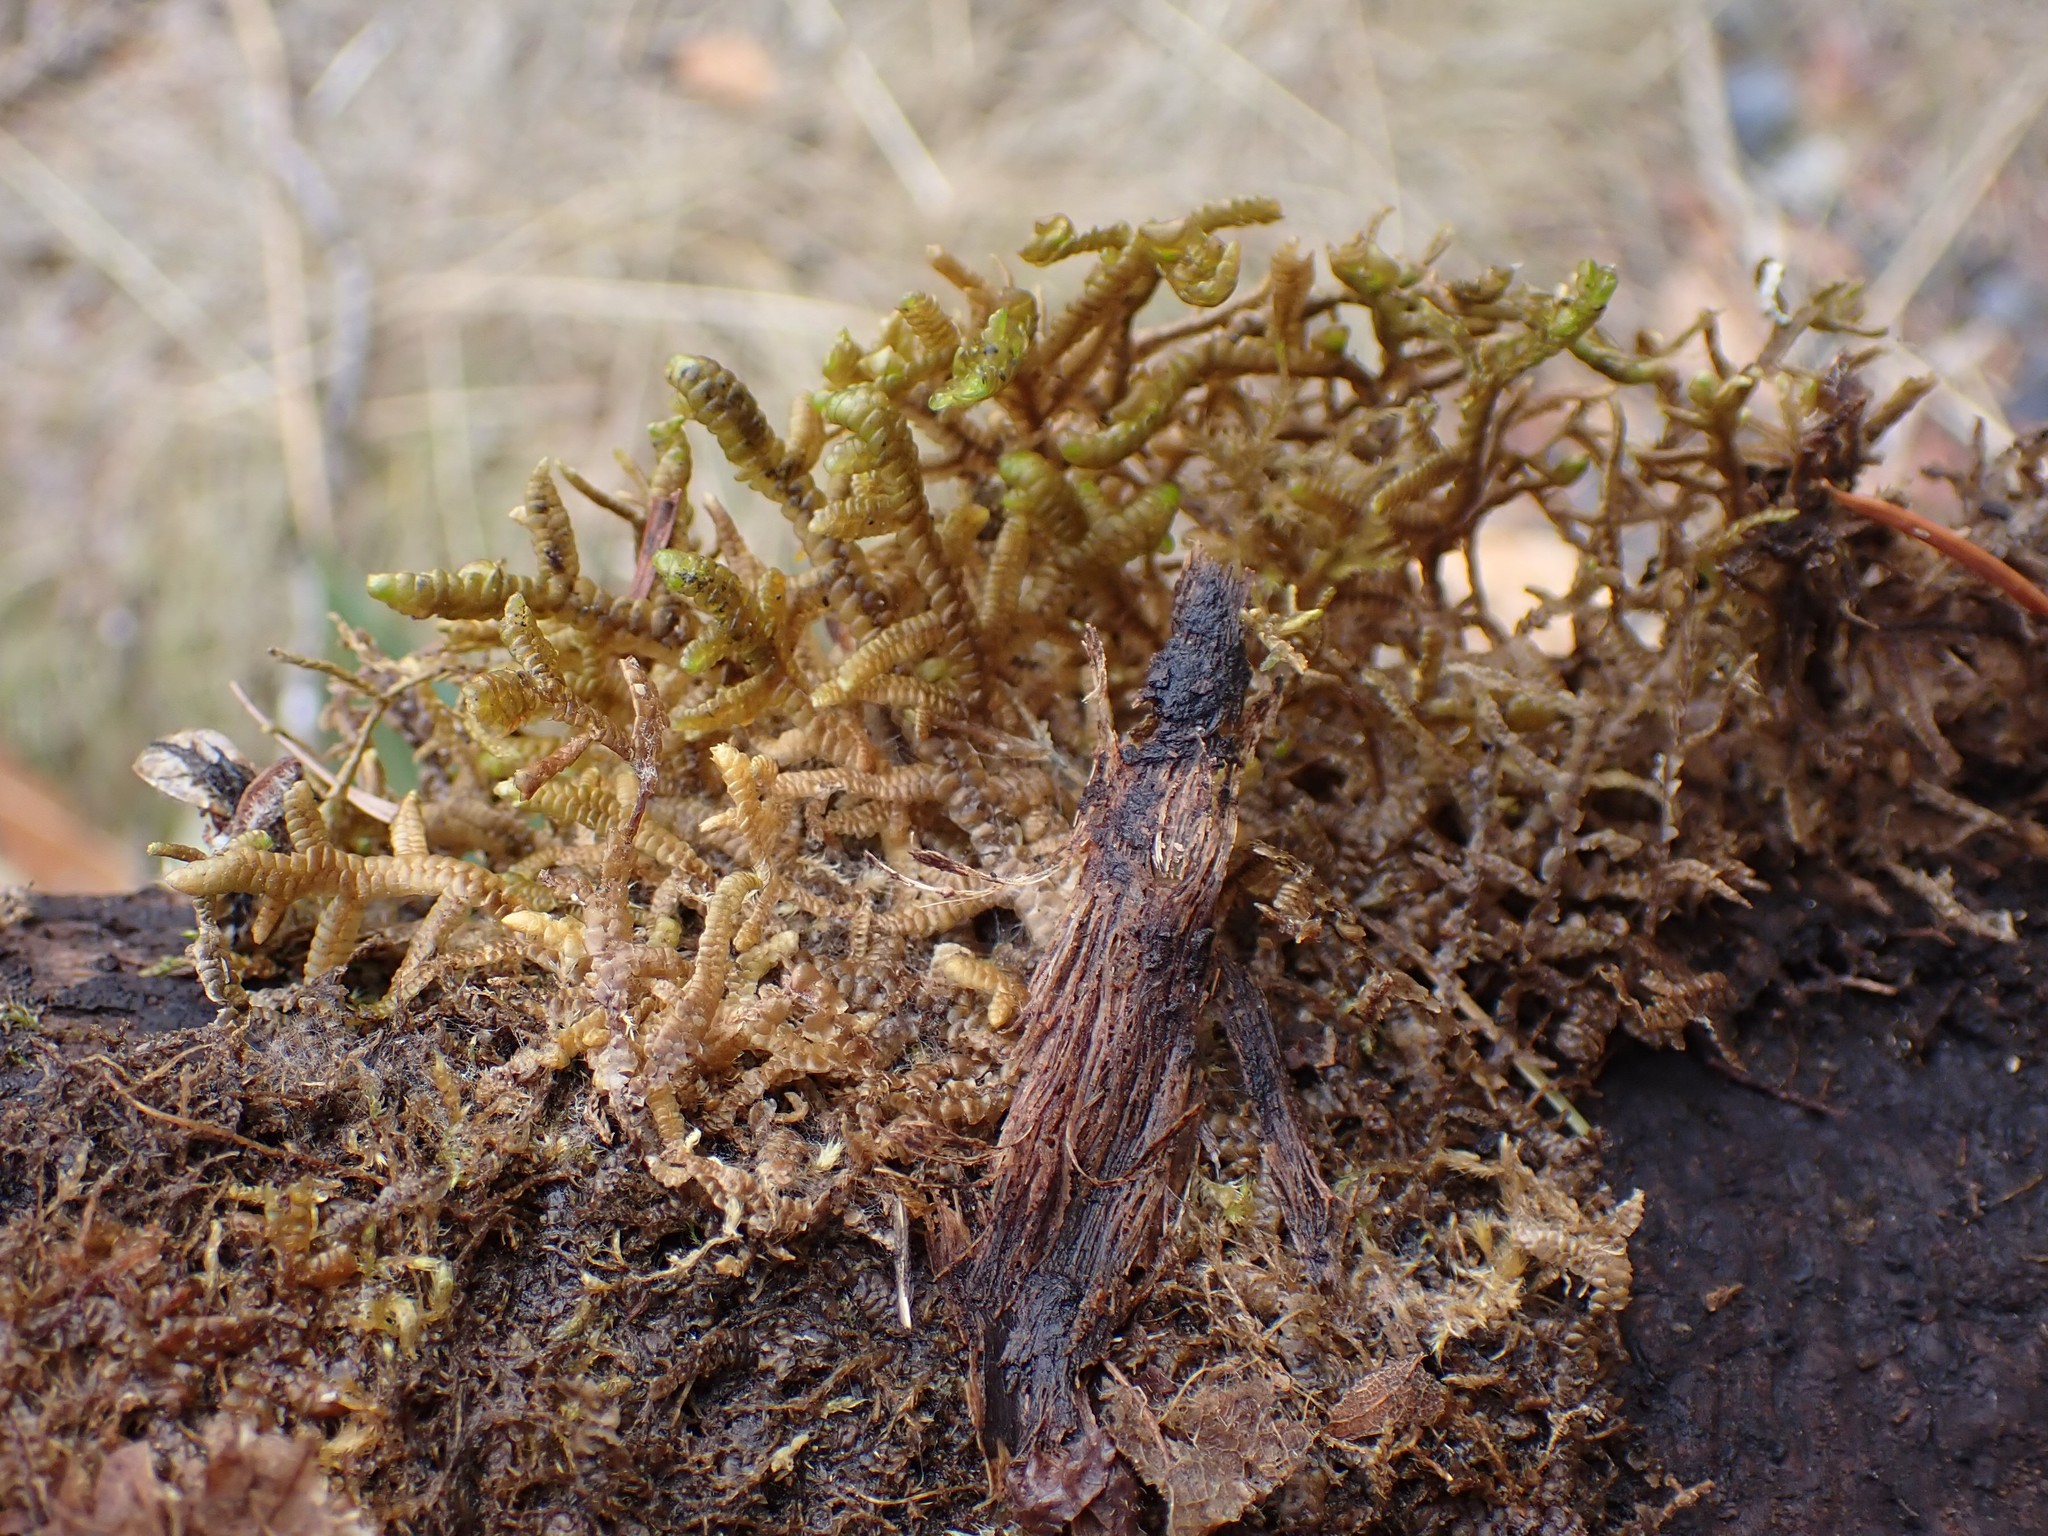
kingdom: Plantae
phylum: Marchantiophyta
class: Jungermanniopsida
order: Porellales
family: Porellaceae
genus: Porella
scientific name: Porella navicularis
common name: Tree ruffle liverwort
